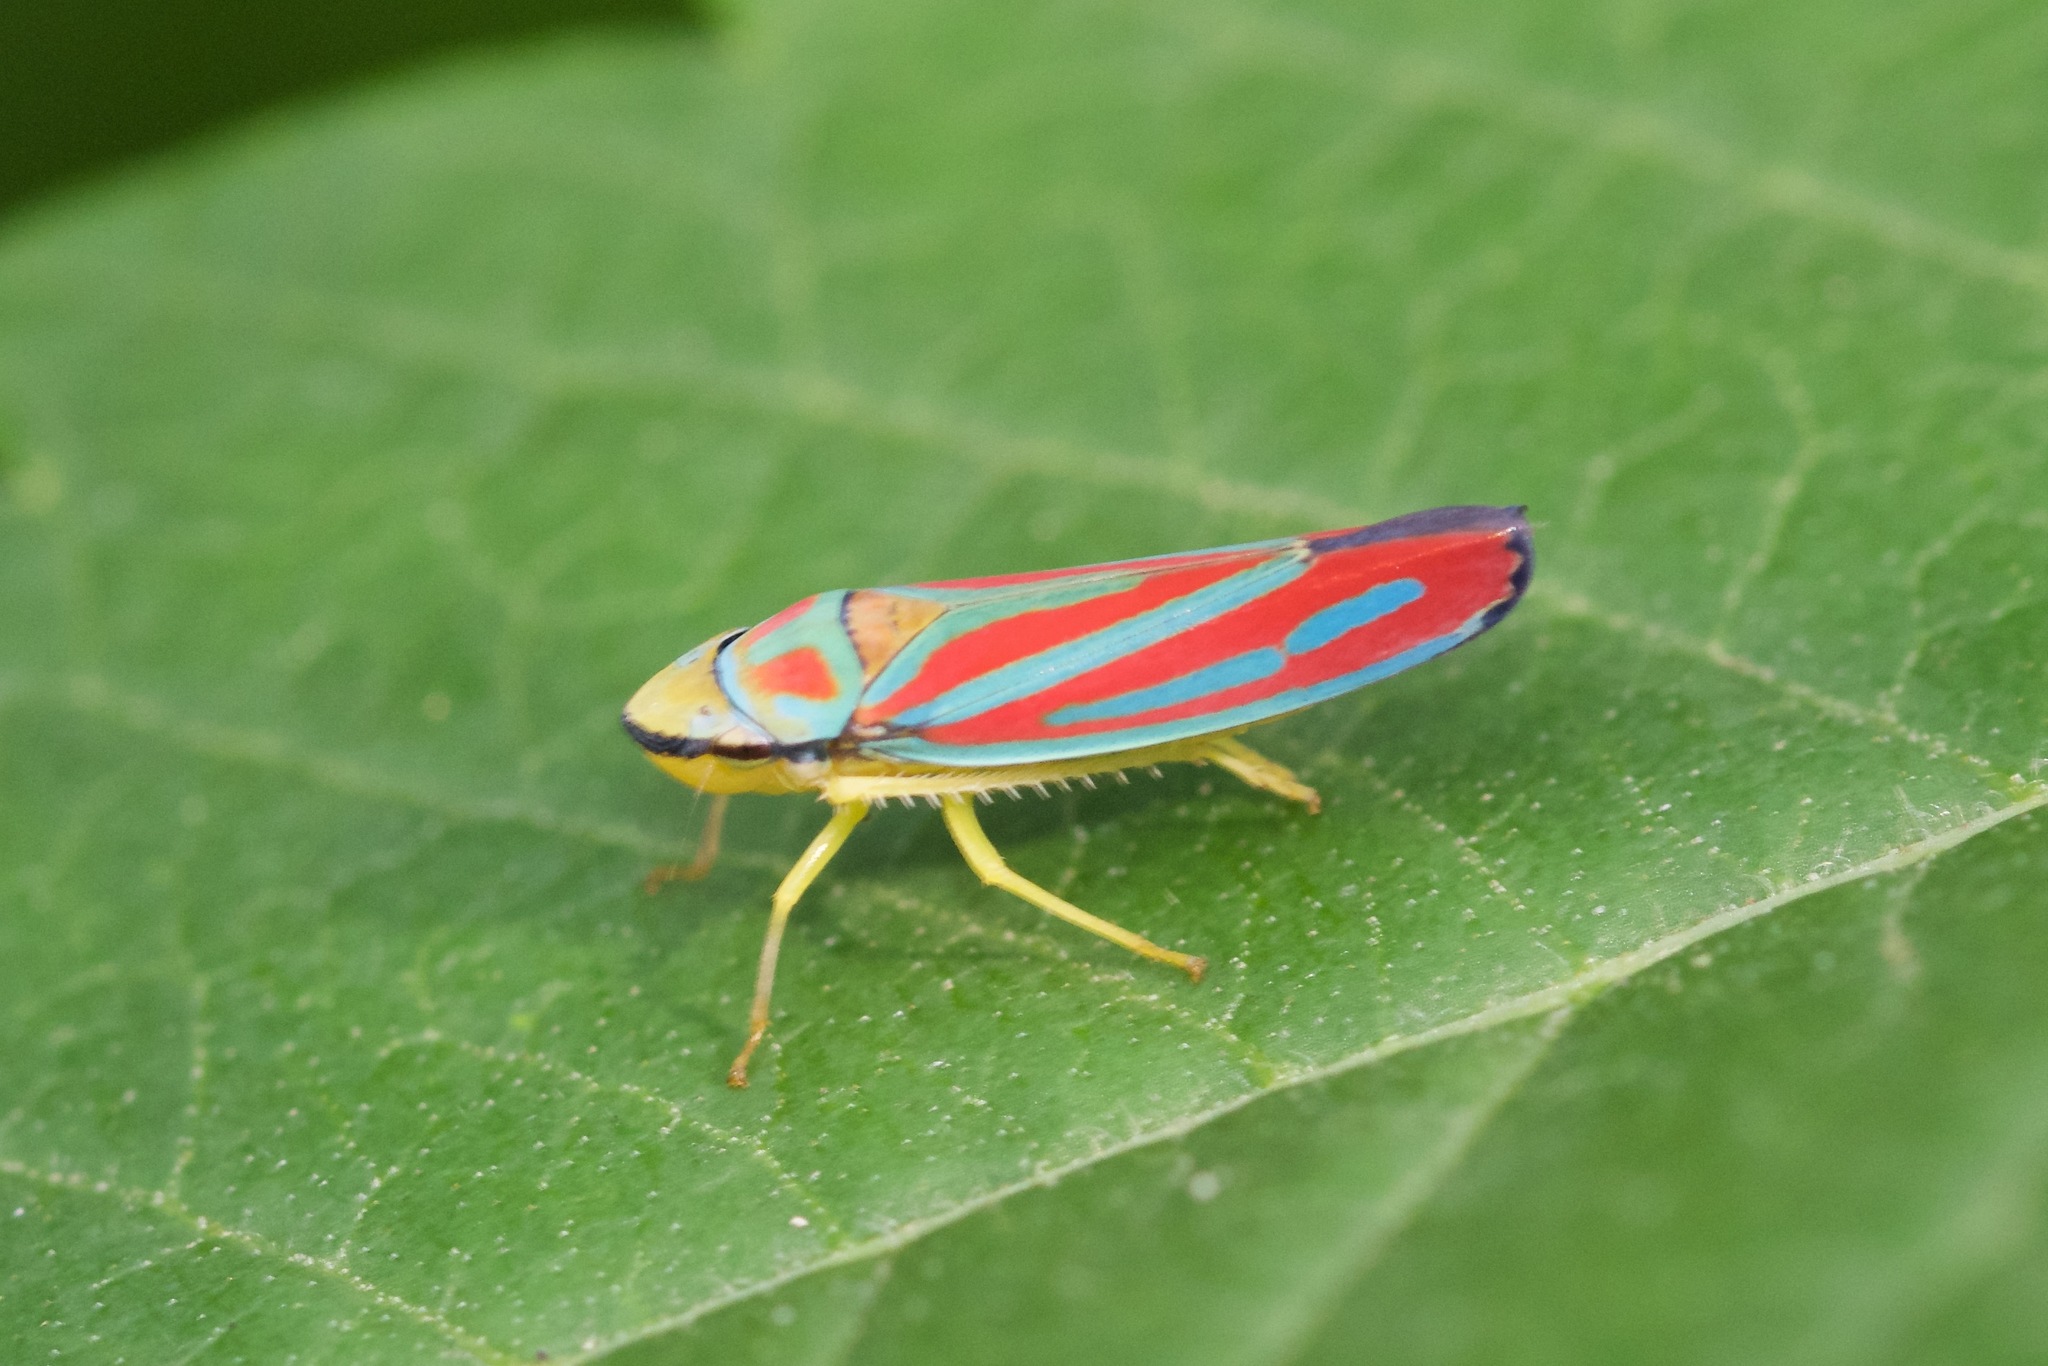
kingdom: Animalia
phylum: Arthropoda
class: Insecta
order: Hemiptera
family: Cicadellidae
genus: Graphocephala
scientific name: Graphocephala coccinea
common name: Candy-striped leafhopper
